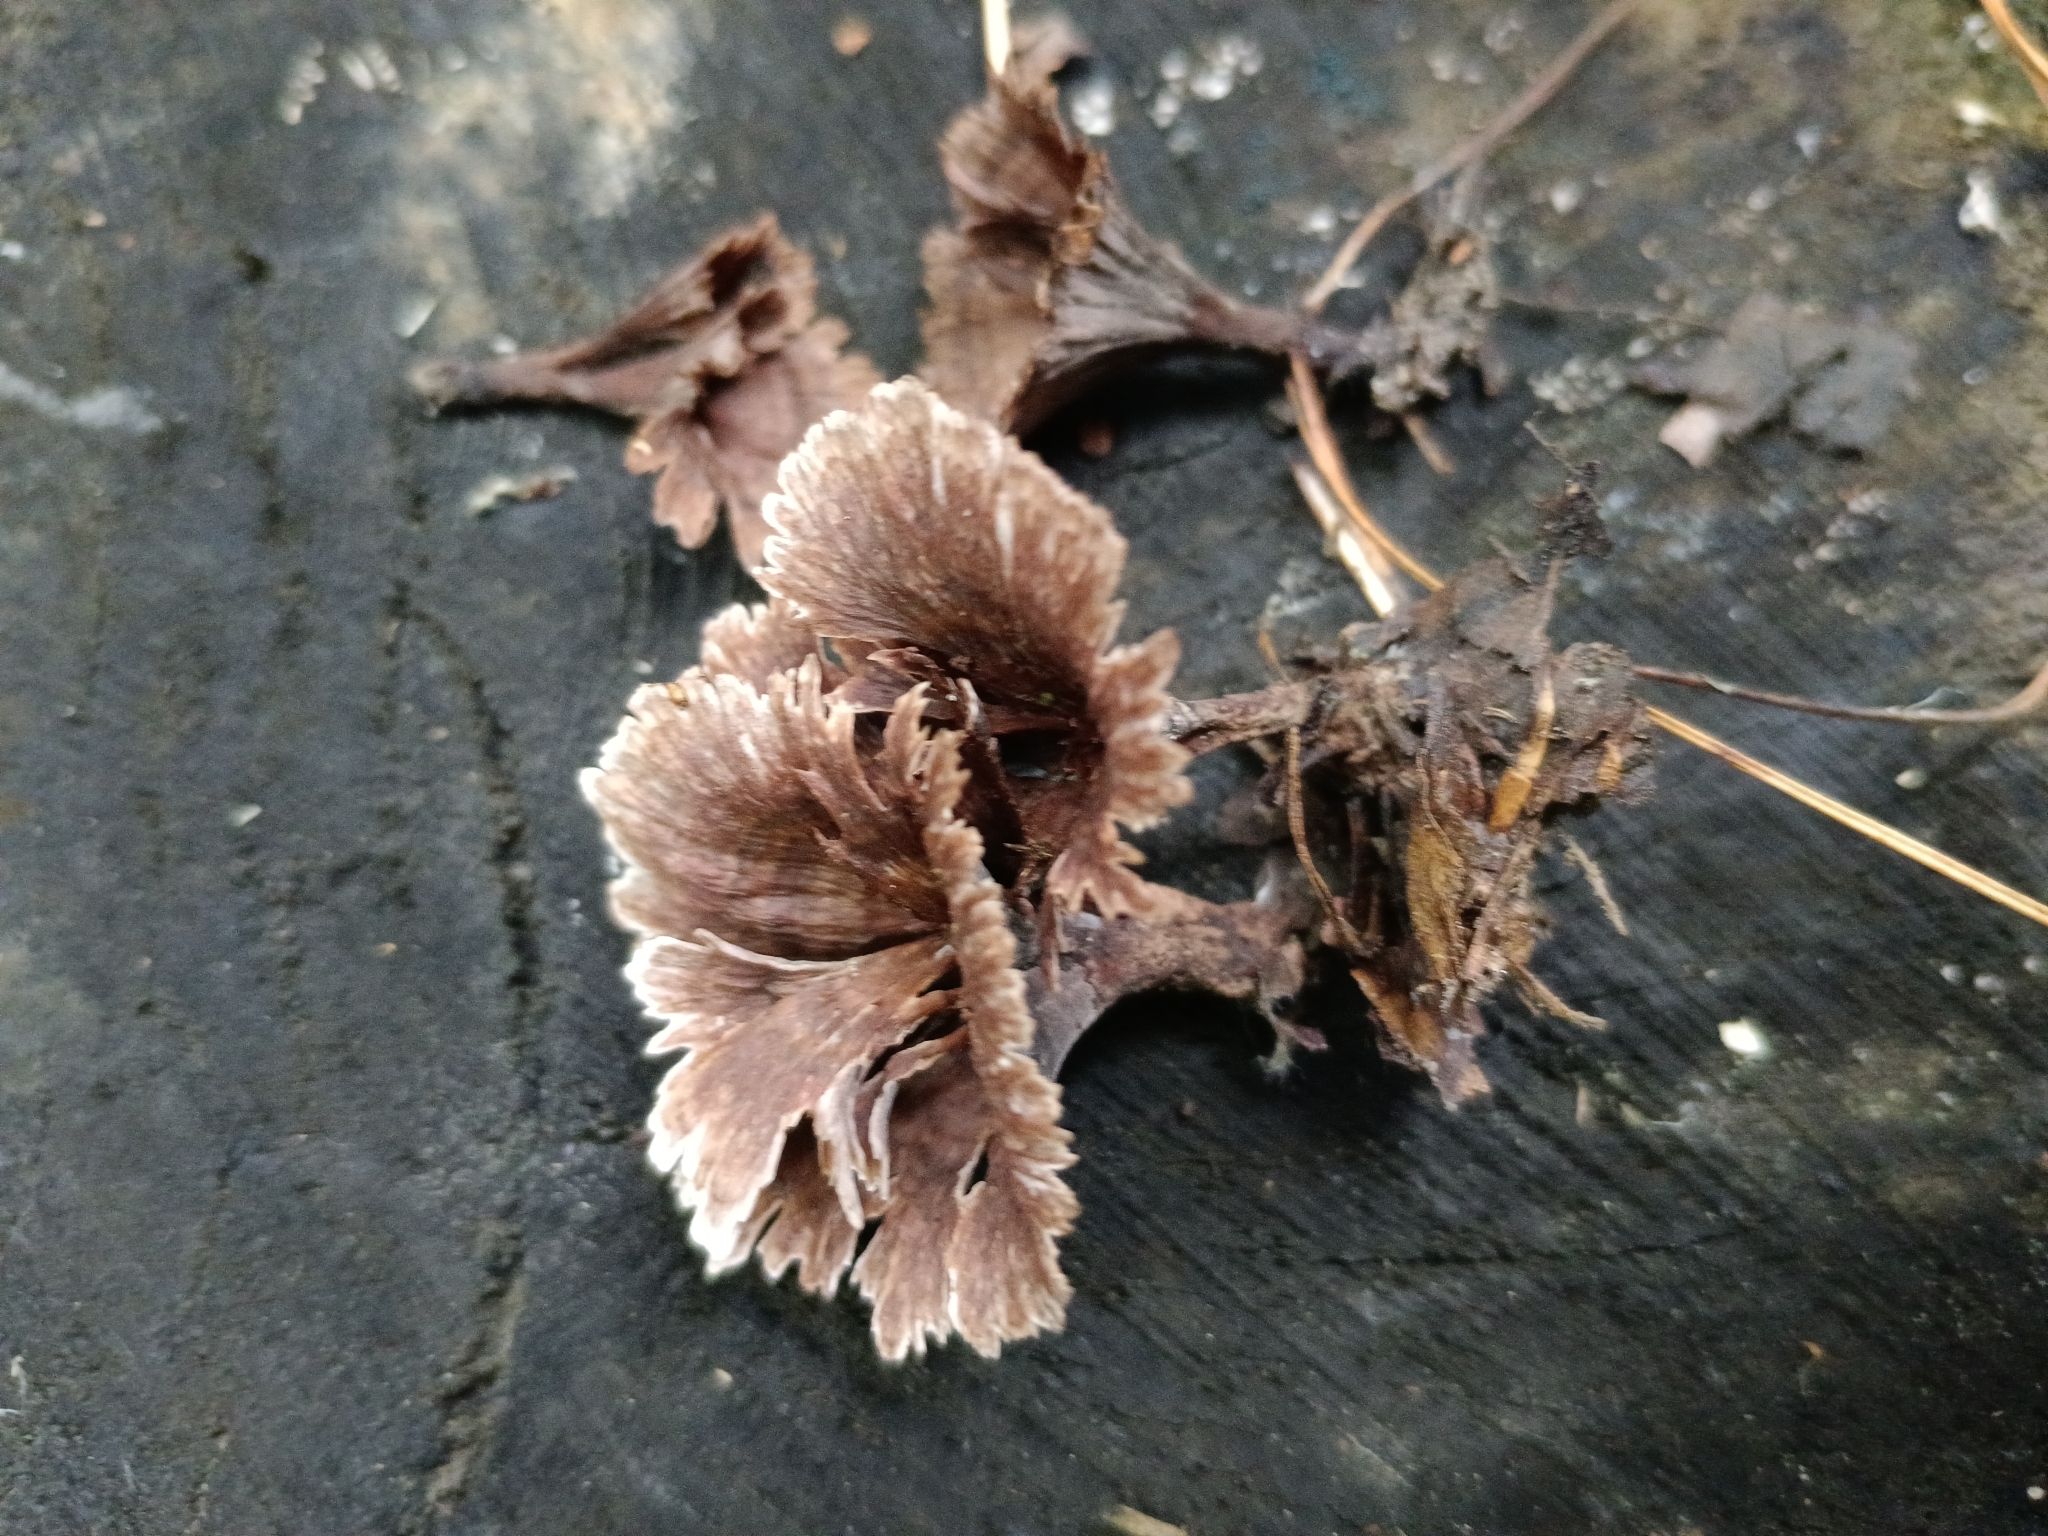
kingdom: Fungi
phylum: Basidiomycota
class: Agaricomycetes
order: Thelephorales
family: Thelephoraceae
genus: Thelephora
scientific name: Thelephora caryophyllea
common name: Carnation earthfan
